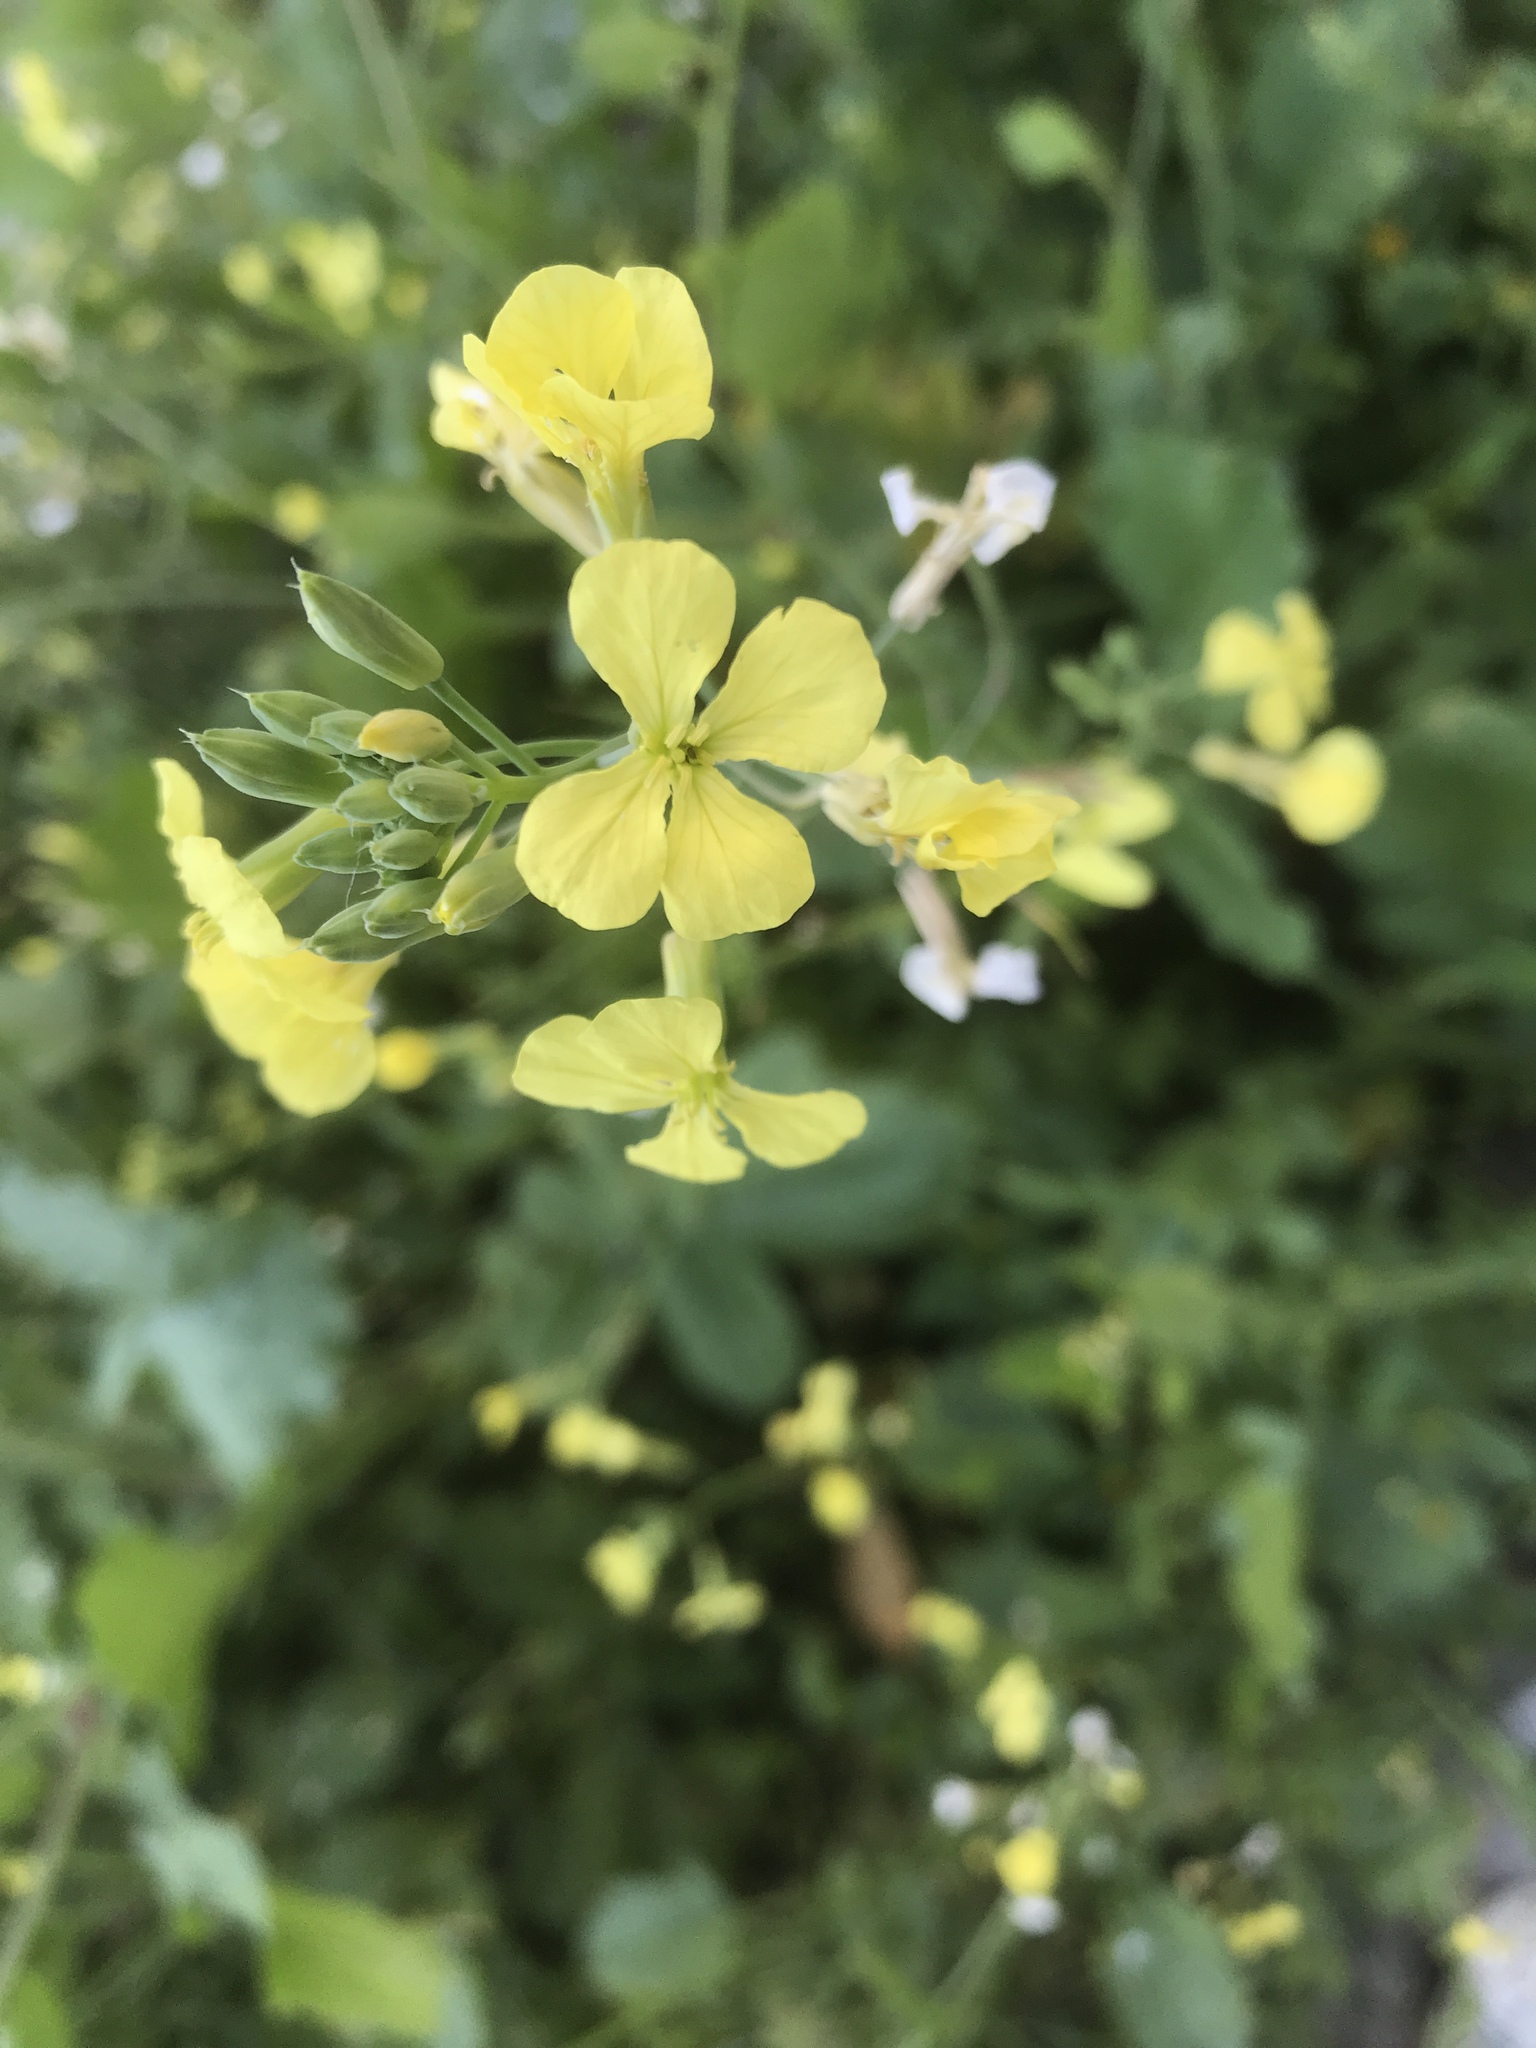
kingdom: Plantae
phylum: Tracheophyta
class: Magnoliopsida
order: Brassicales
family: Brassicaceae
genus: Raphanus
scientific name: Raphanus raphanistrum
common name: Wild radish
